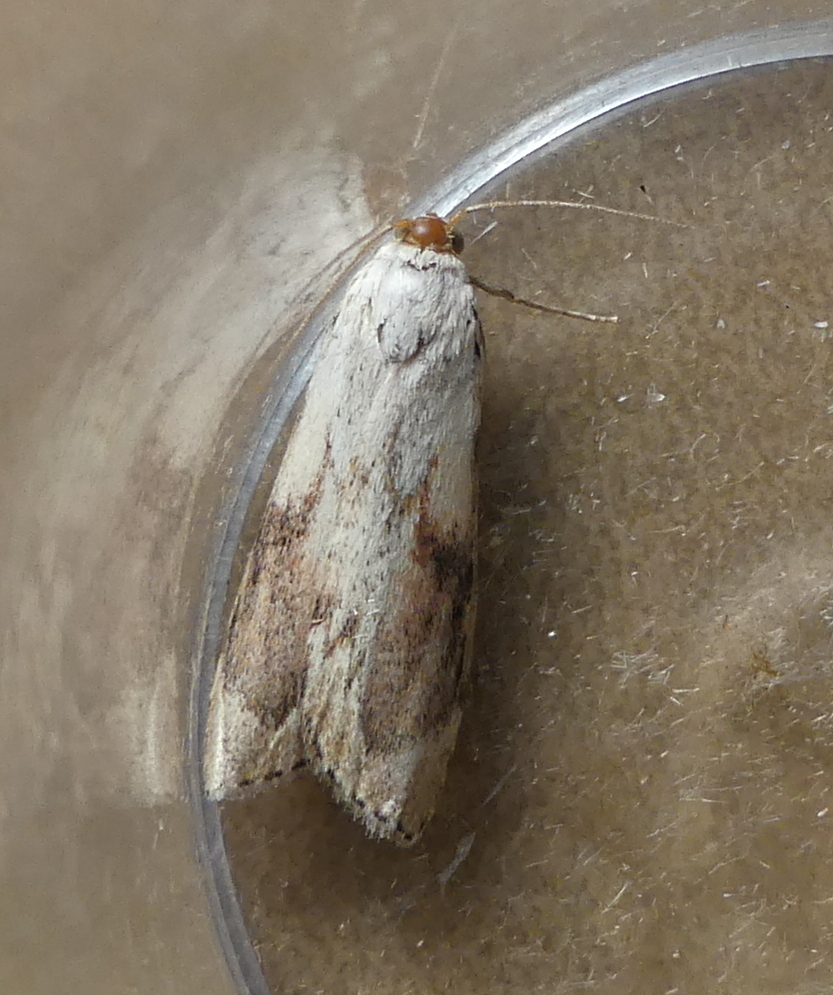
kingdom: Animalia
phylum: Arthropoda
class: Insecta
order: Lepidoptera
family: Pyralidae
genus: Aphomia
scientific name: Aphomia sociella
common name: Bee moth
